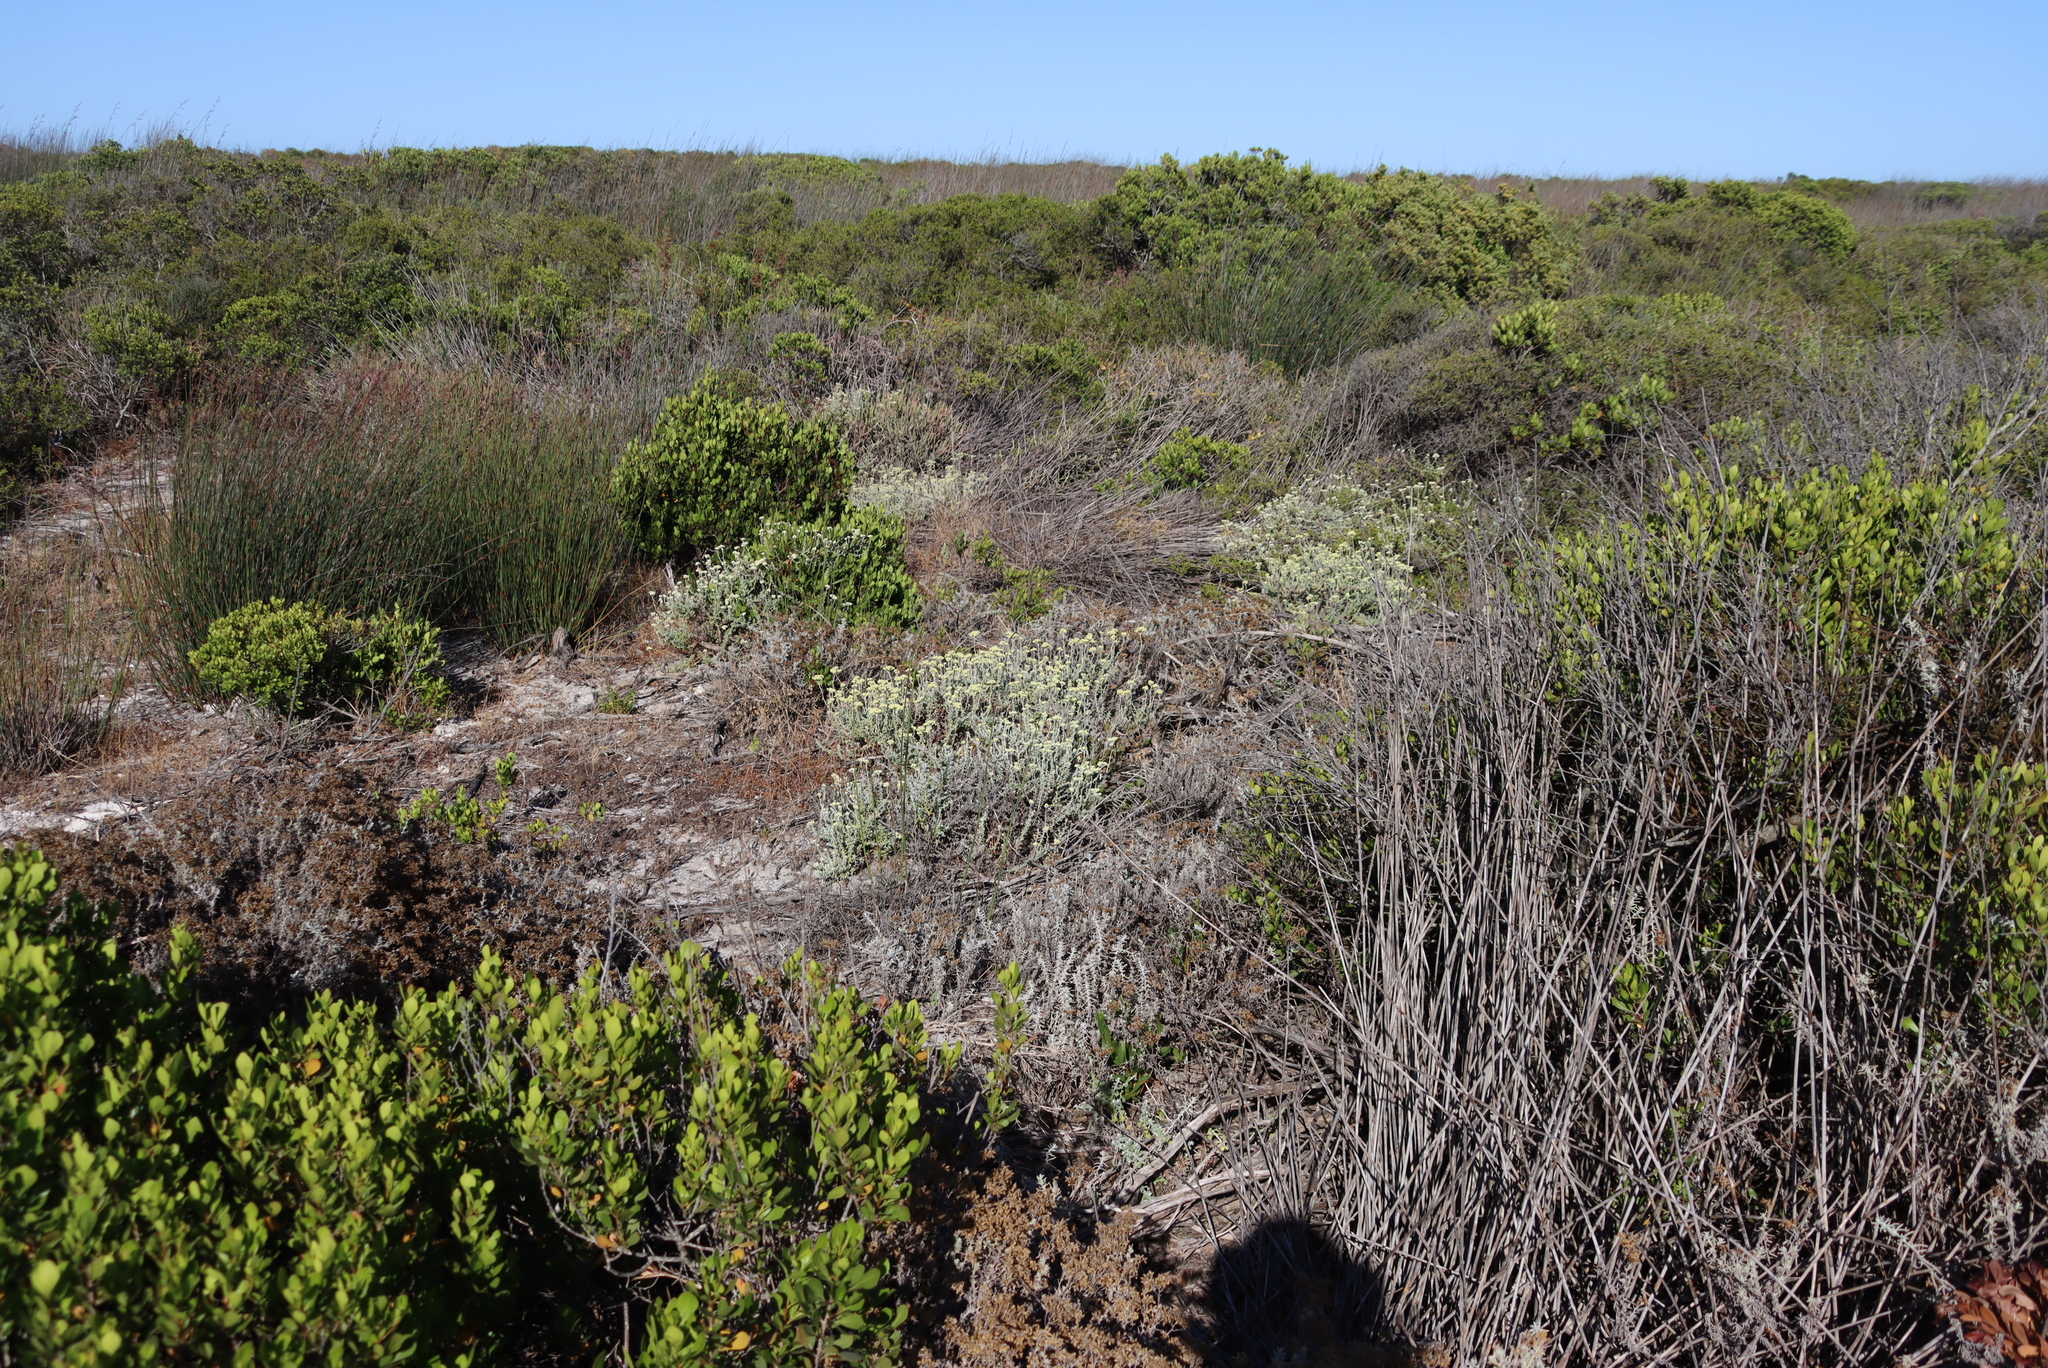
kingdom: Plantae
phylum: Tracheophyta
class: Magnoliopsida
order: Asterales
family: Asteraceae
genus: Helichrysum
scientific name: Helichrysum patulum
